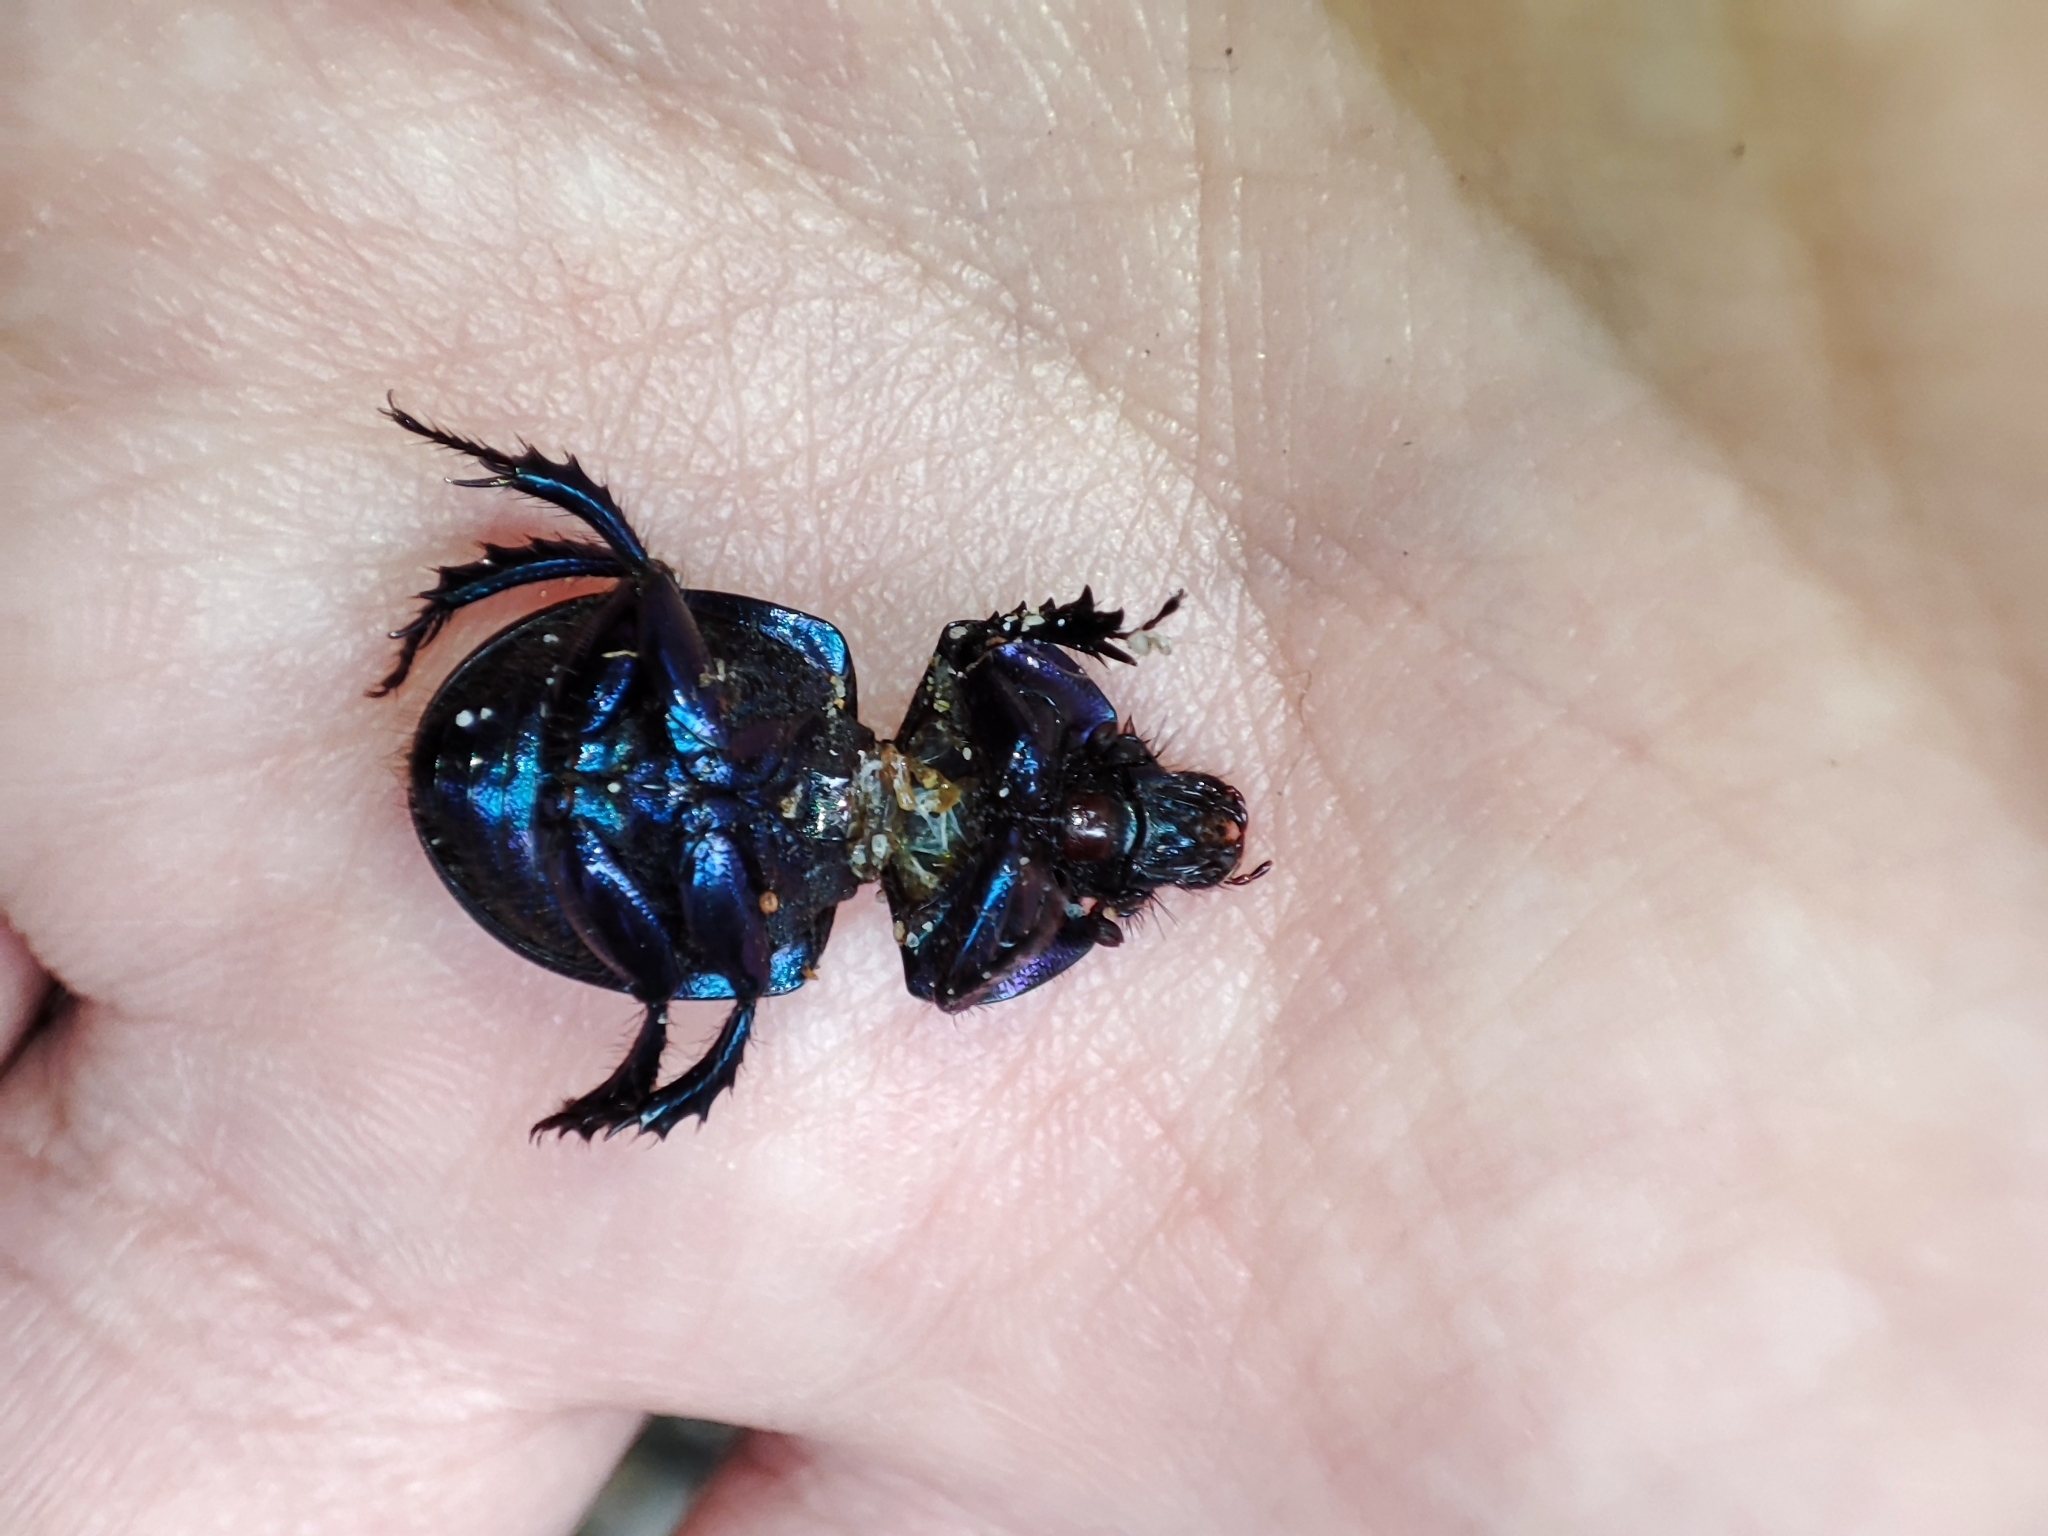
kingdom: Animalia
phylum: Arthropoda
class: Insecta
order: Coleoptera
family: Geotrupidae
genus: Anoplotrupes
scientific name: Anoplotrupes stercorosus
